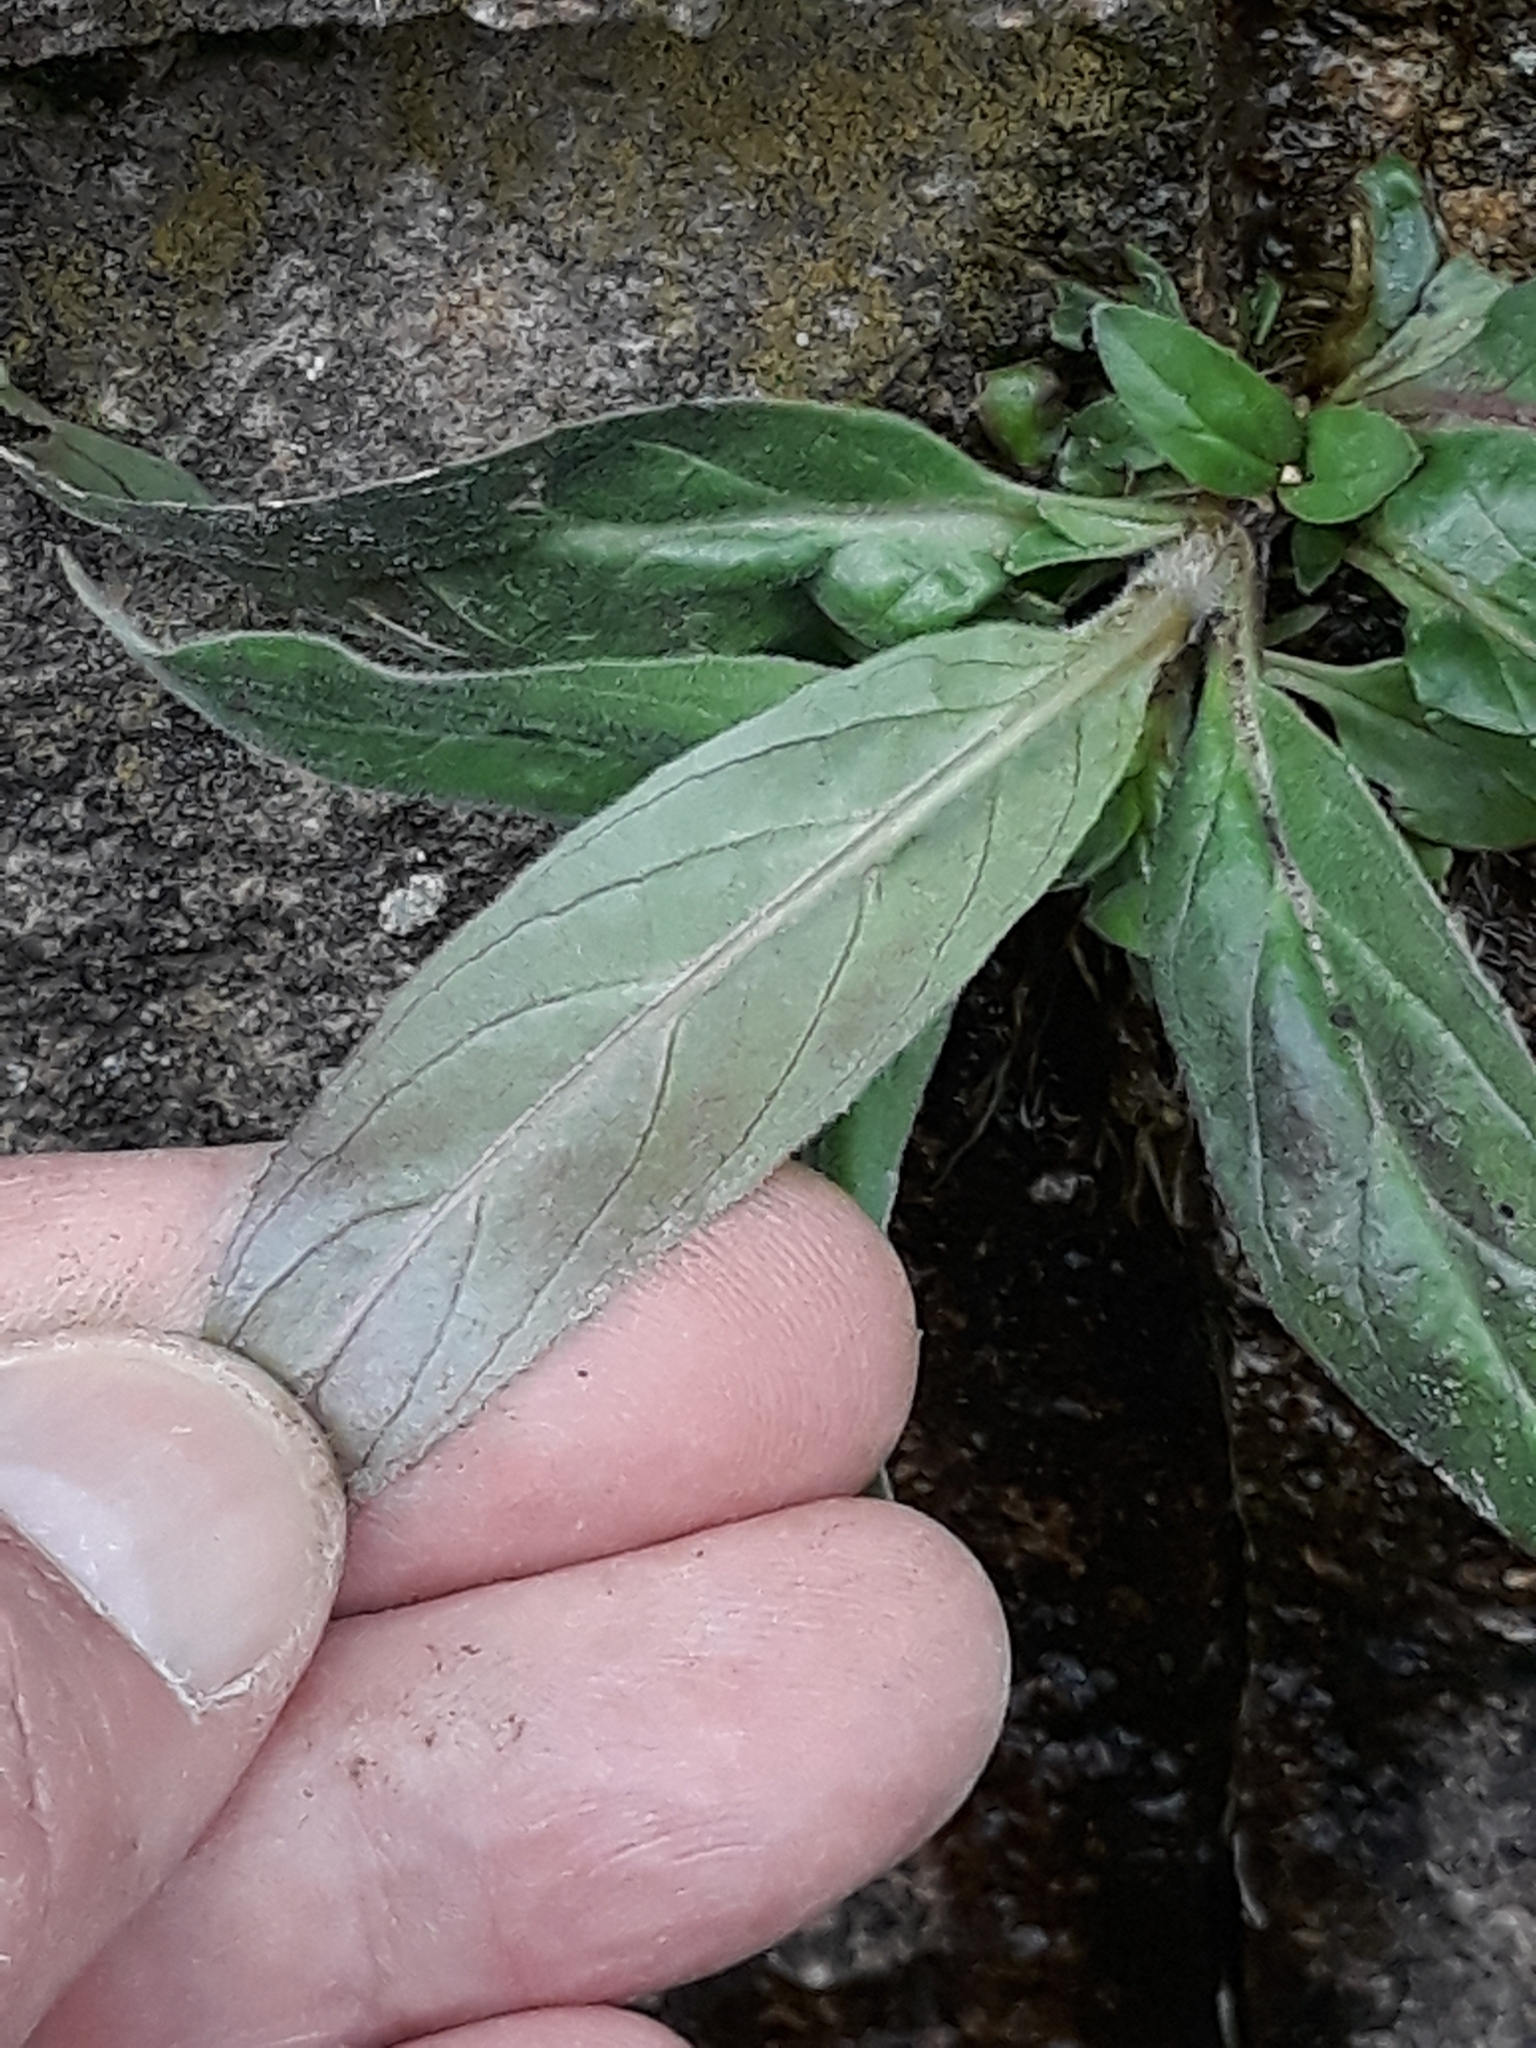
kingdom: Plantae
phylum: Tracheophyta
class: Magnoliopsida
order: Myrtales
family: Onagraceae
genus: Epilobium
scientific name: Epilobium parviflorum
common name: Hoary willowherb
